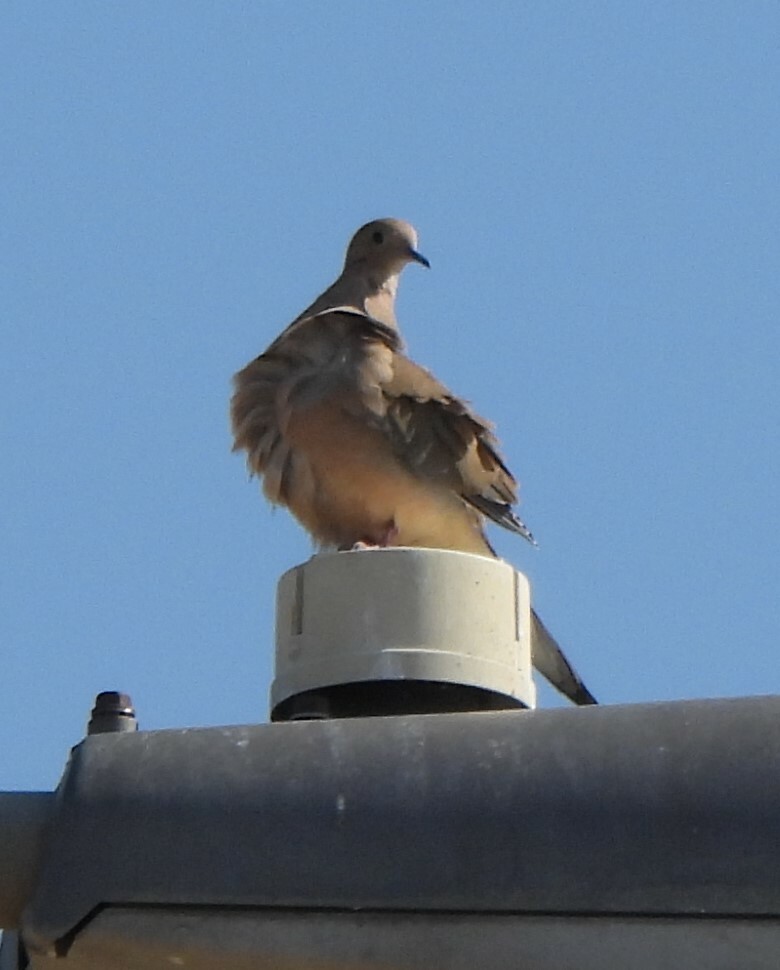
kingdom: Animalia
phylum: Chordata
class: Aves
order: Columbiformes
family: Columbidae
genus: Zenaida
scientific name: Zenaida macroura
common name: Mourning dove
